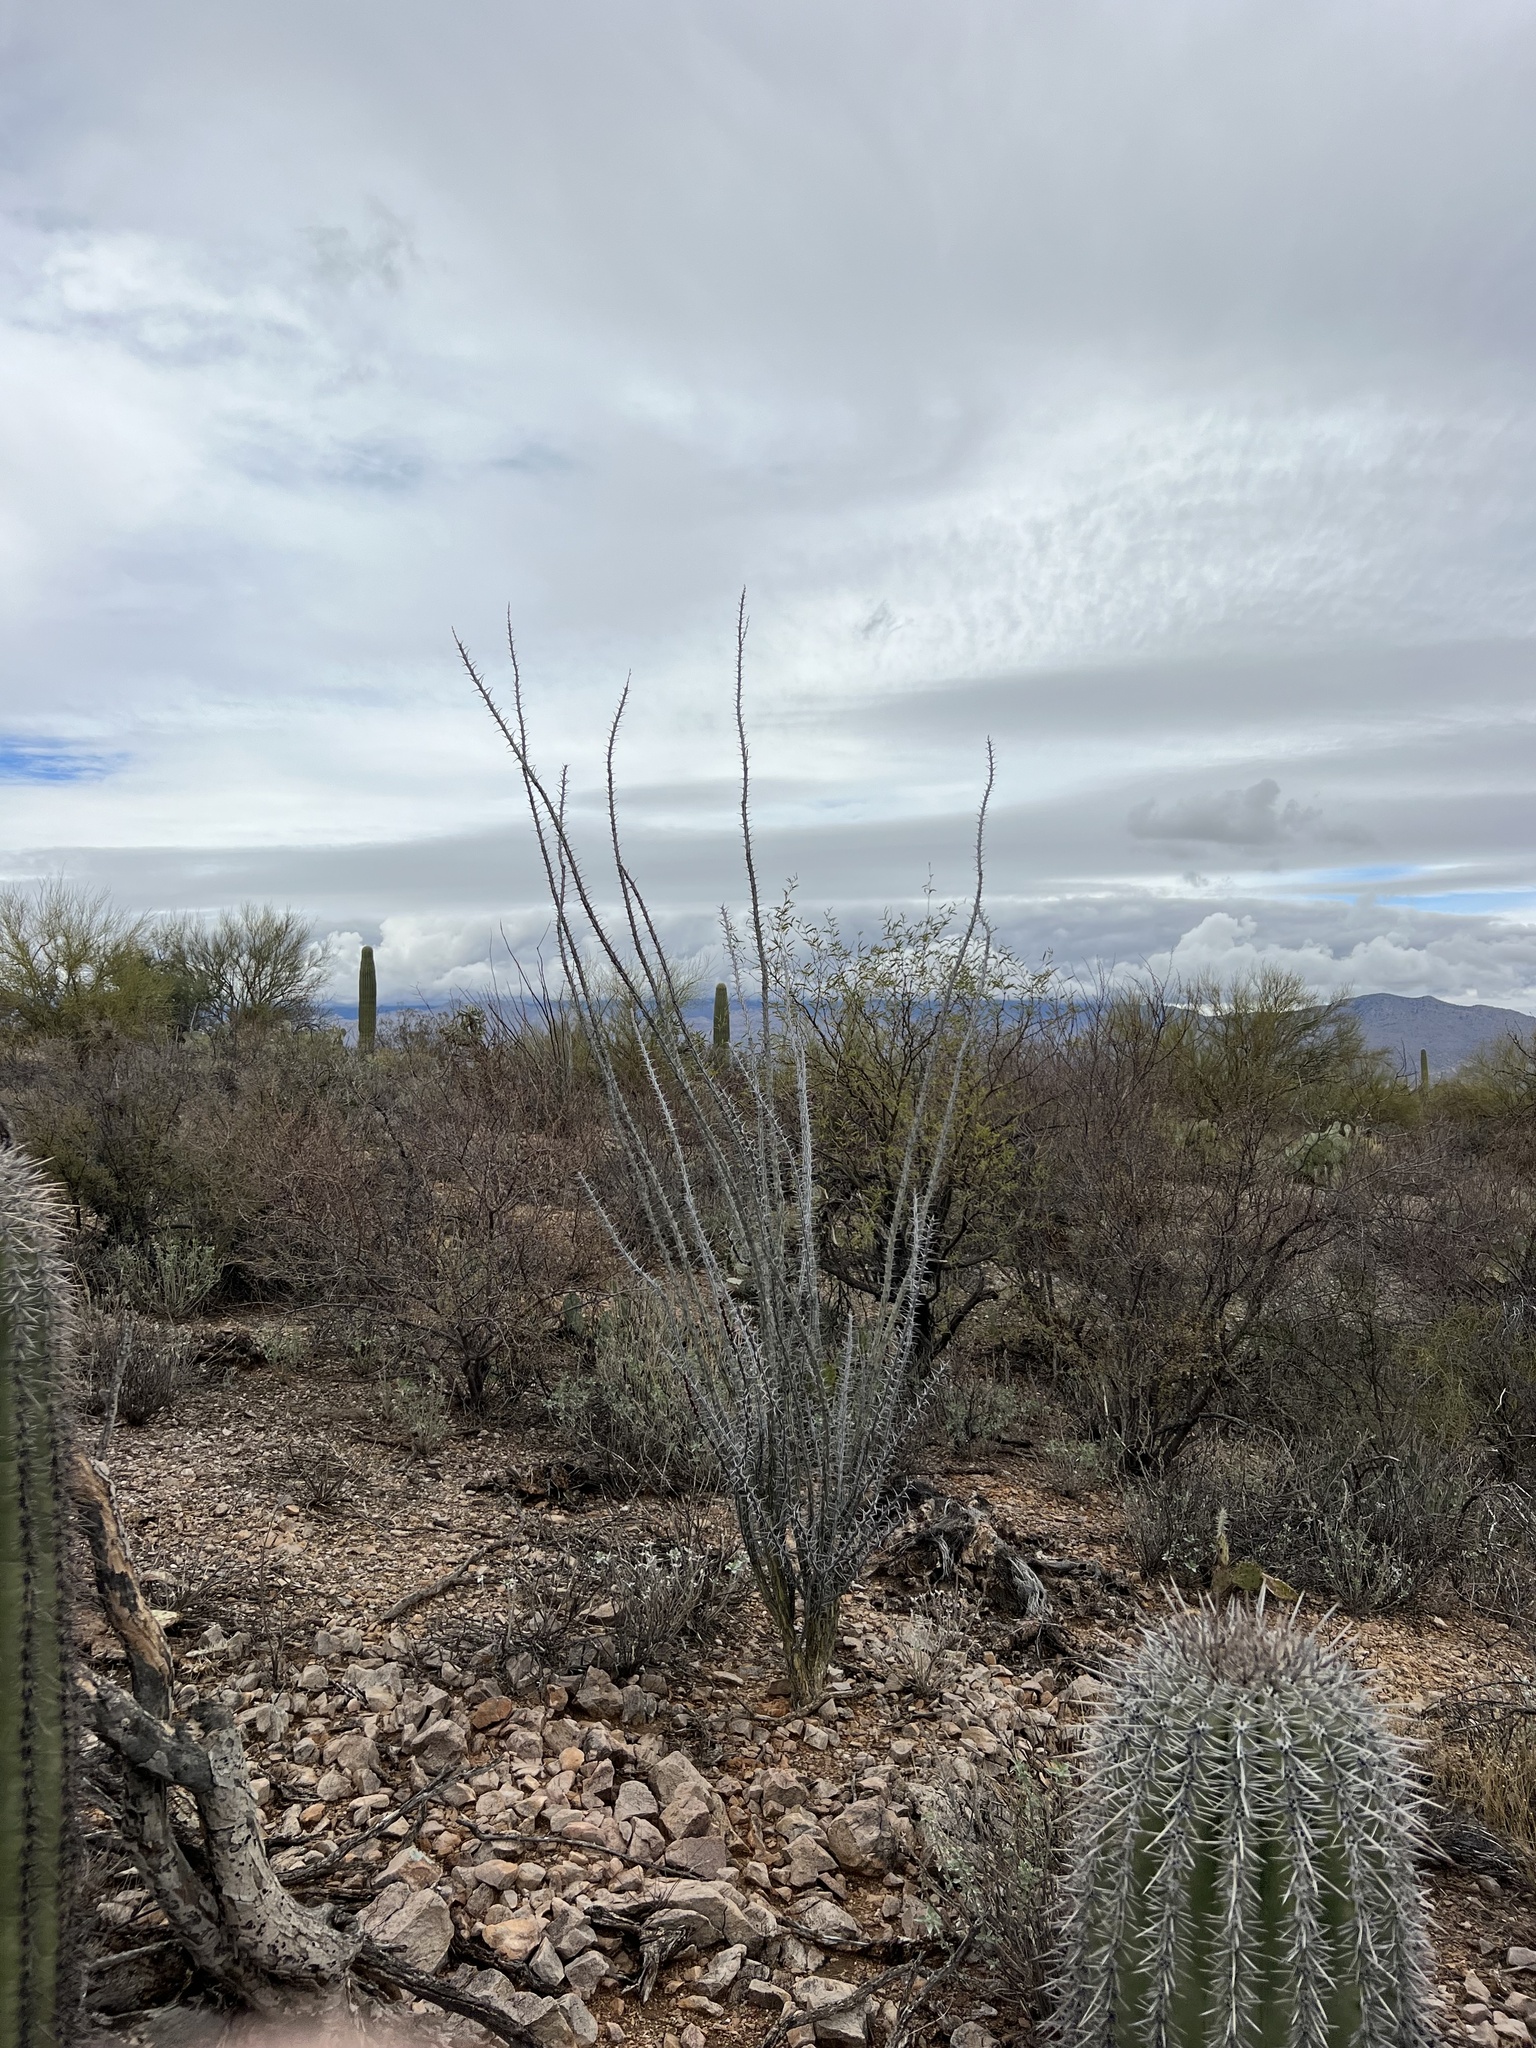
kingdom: Plantae
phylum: Tracheophyta
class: Magnoliopsida
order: Ericales
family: Fouquieriaceae
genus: Fouquieria
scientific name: Fouquieria splendens
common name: Vine-cactus
